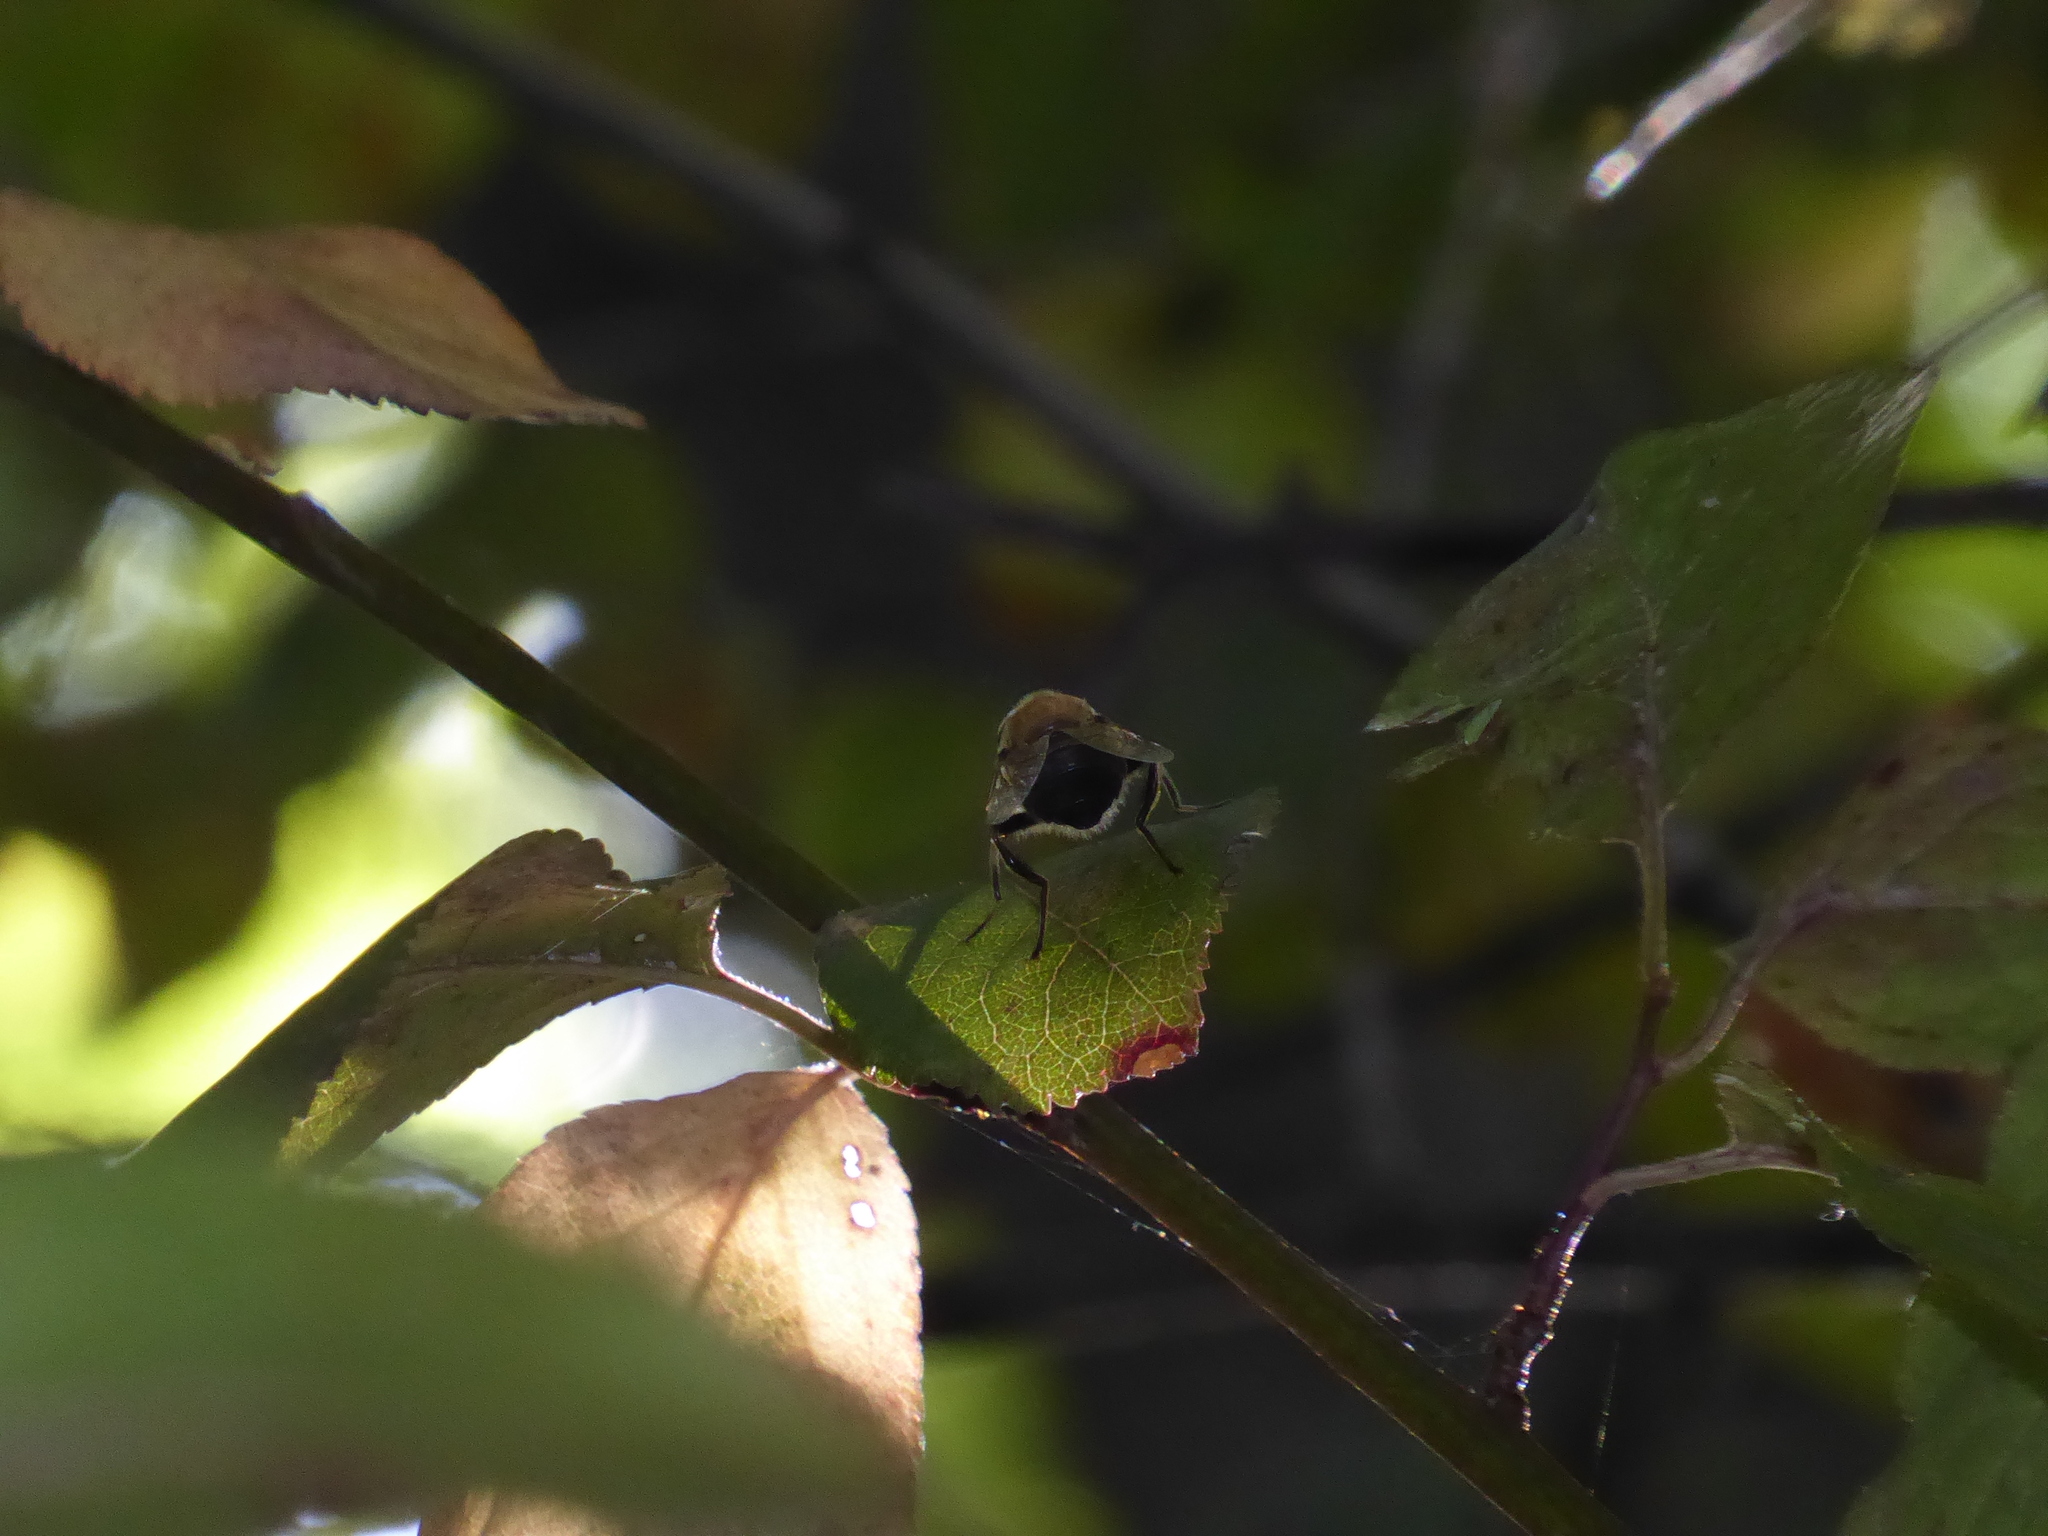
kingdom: Animalia
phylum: Arthropoda
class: Insecta
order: Diptera
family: Syrphidae
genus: Eristalis
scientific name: Eristalis tenax
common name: Drone fly
